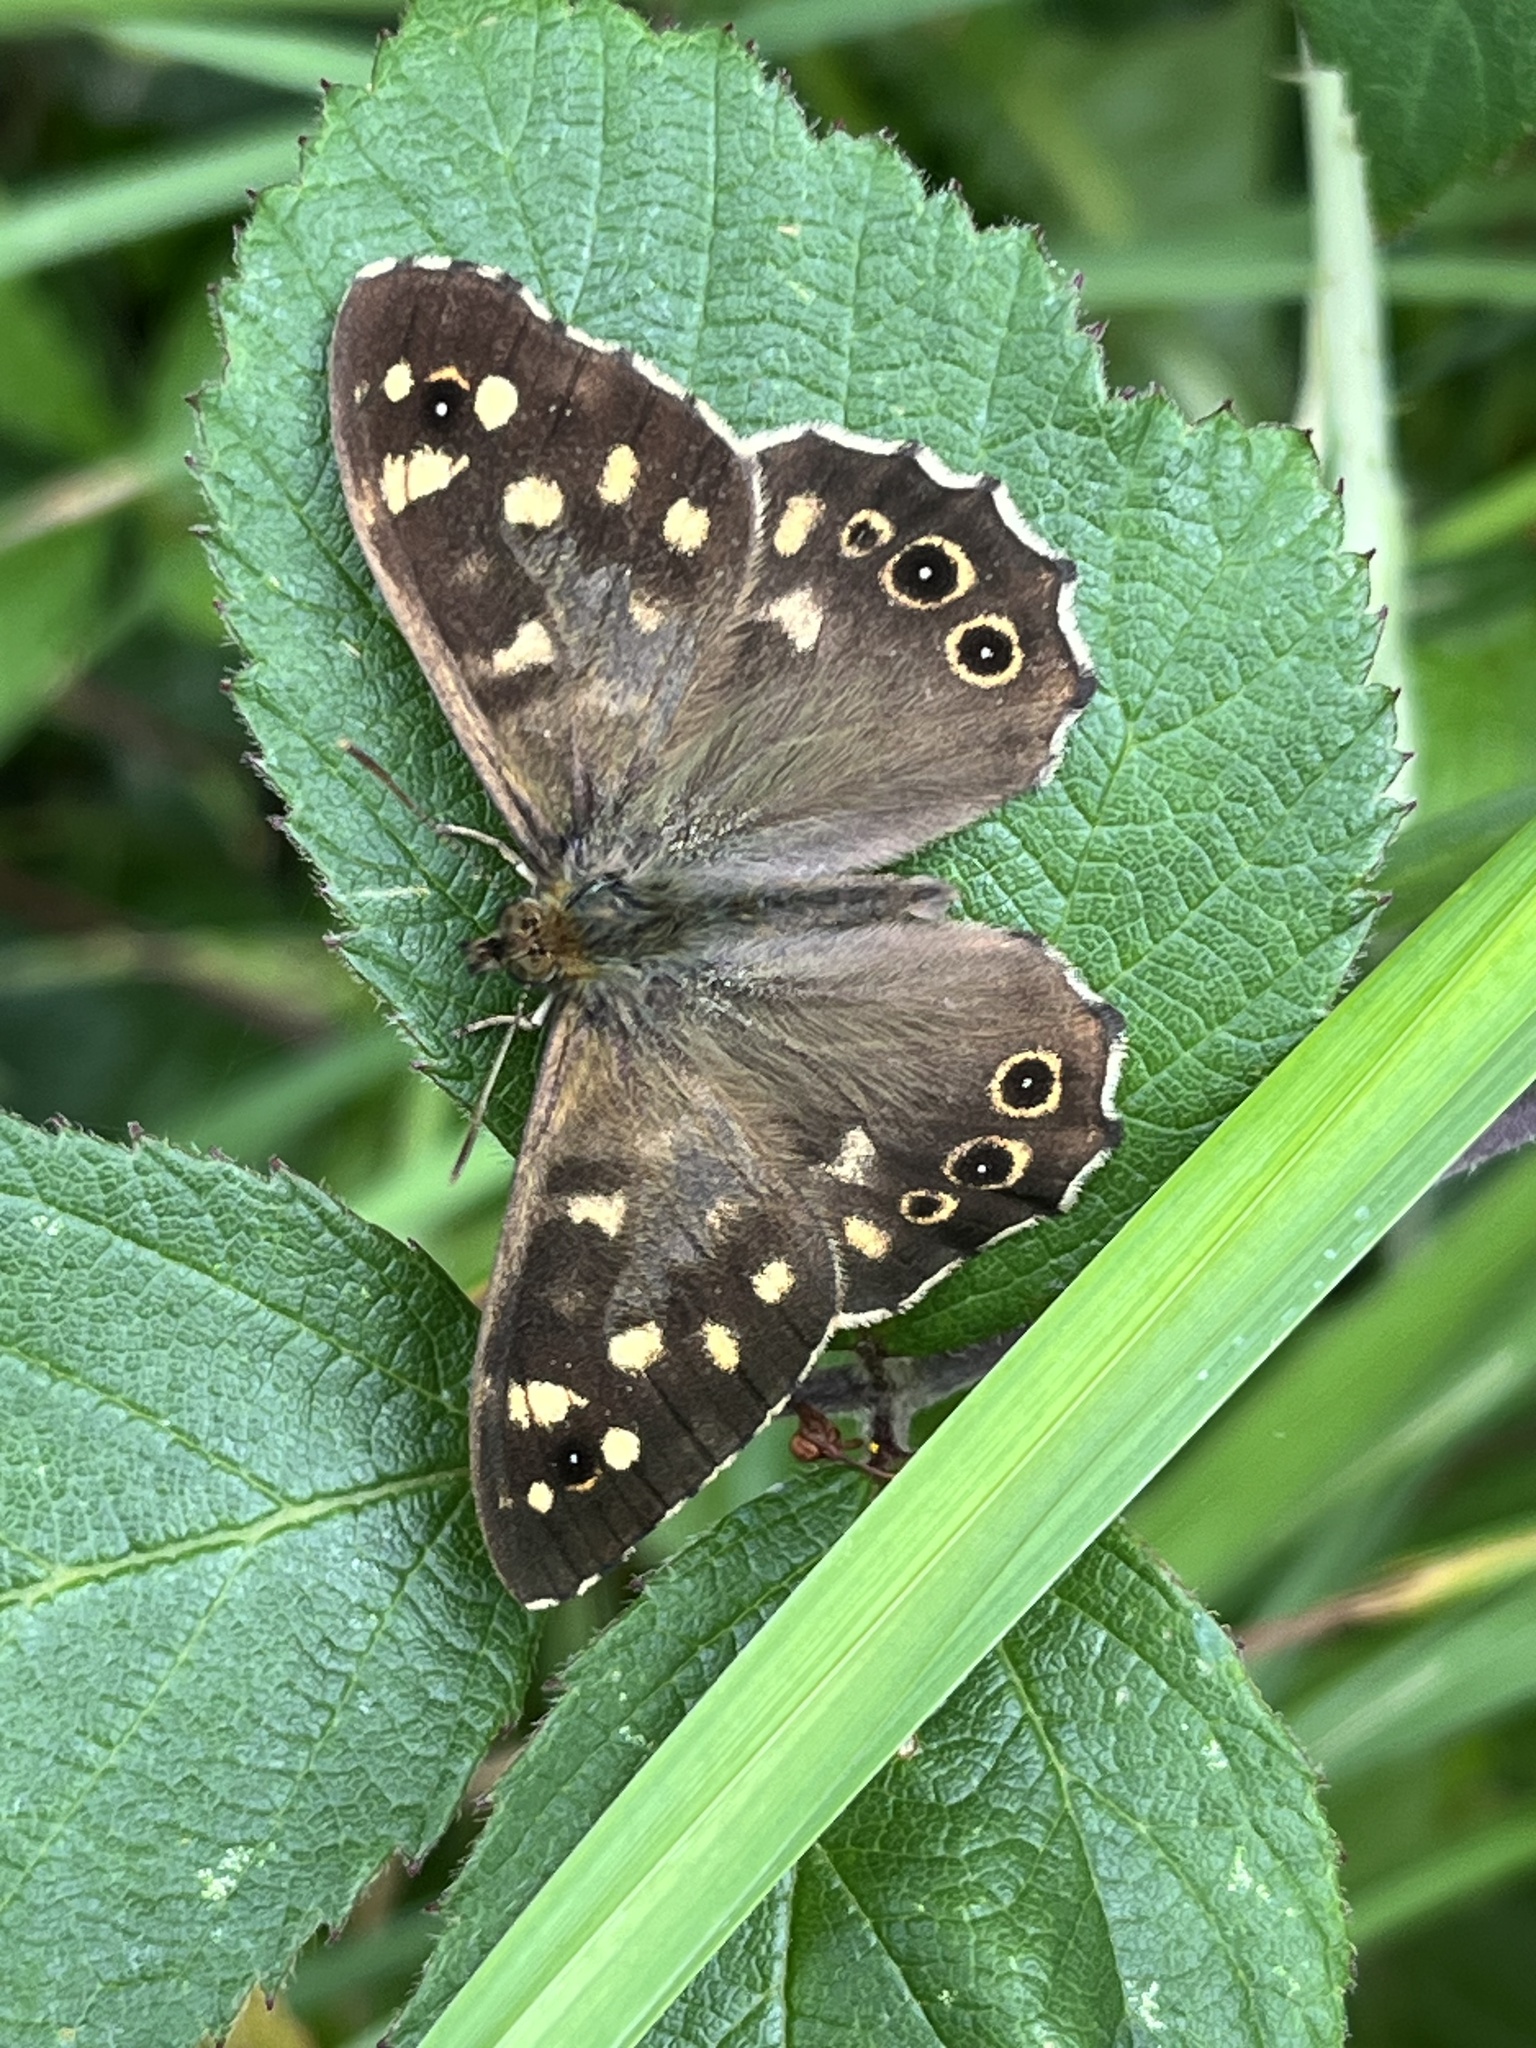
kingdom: Animalia
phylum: Arthropoda
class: Insecta
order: Lepidoptera
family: Nymphalidae
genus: Pararge
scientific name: Pararge aegeria
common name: Speckled wood
